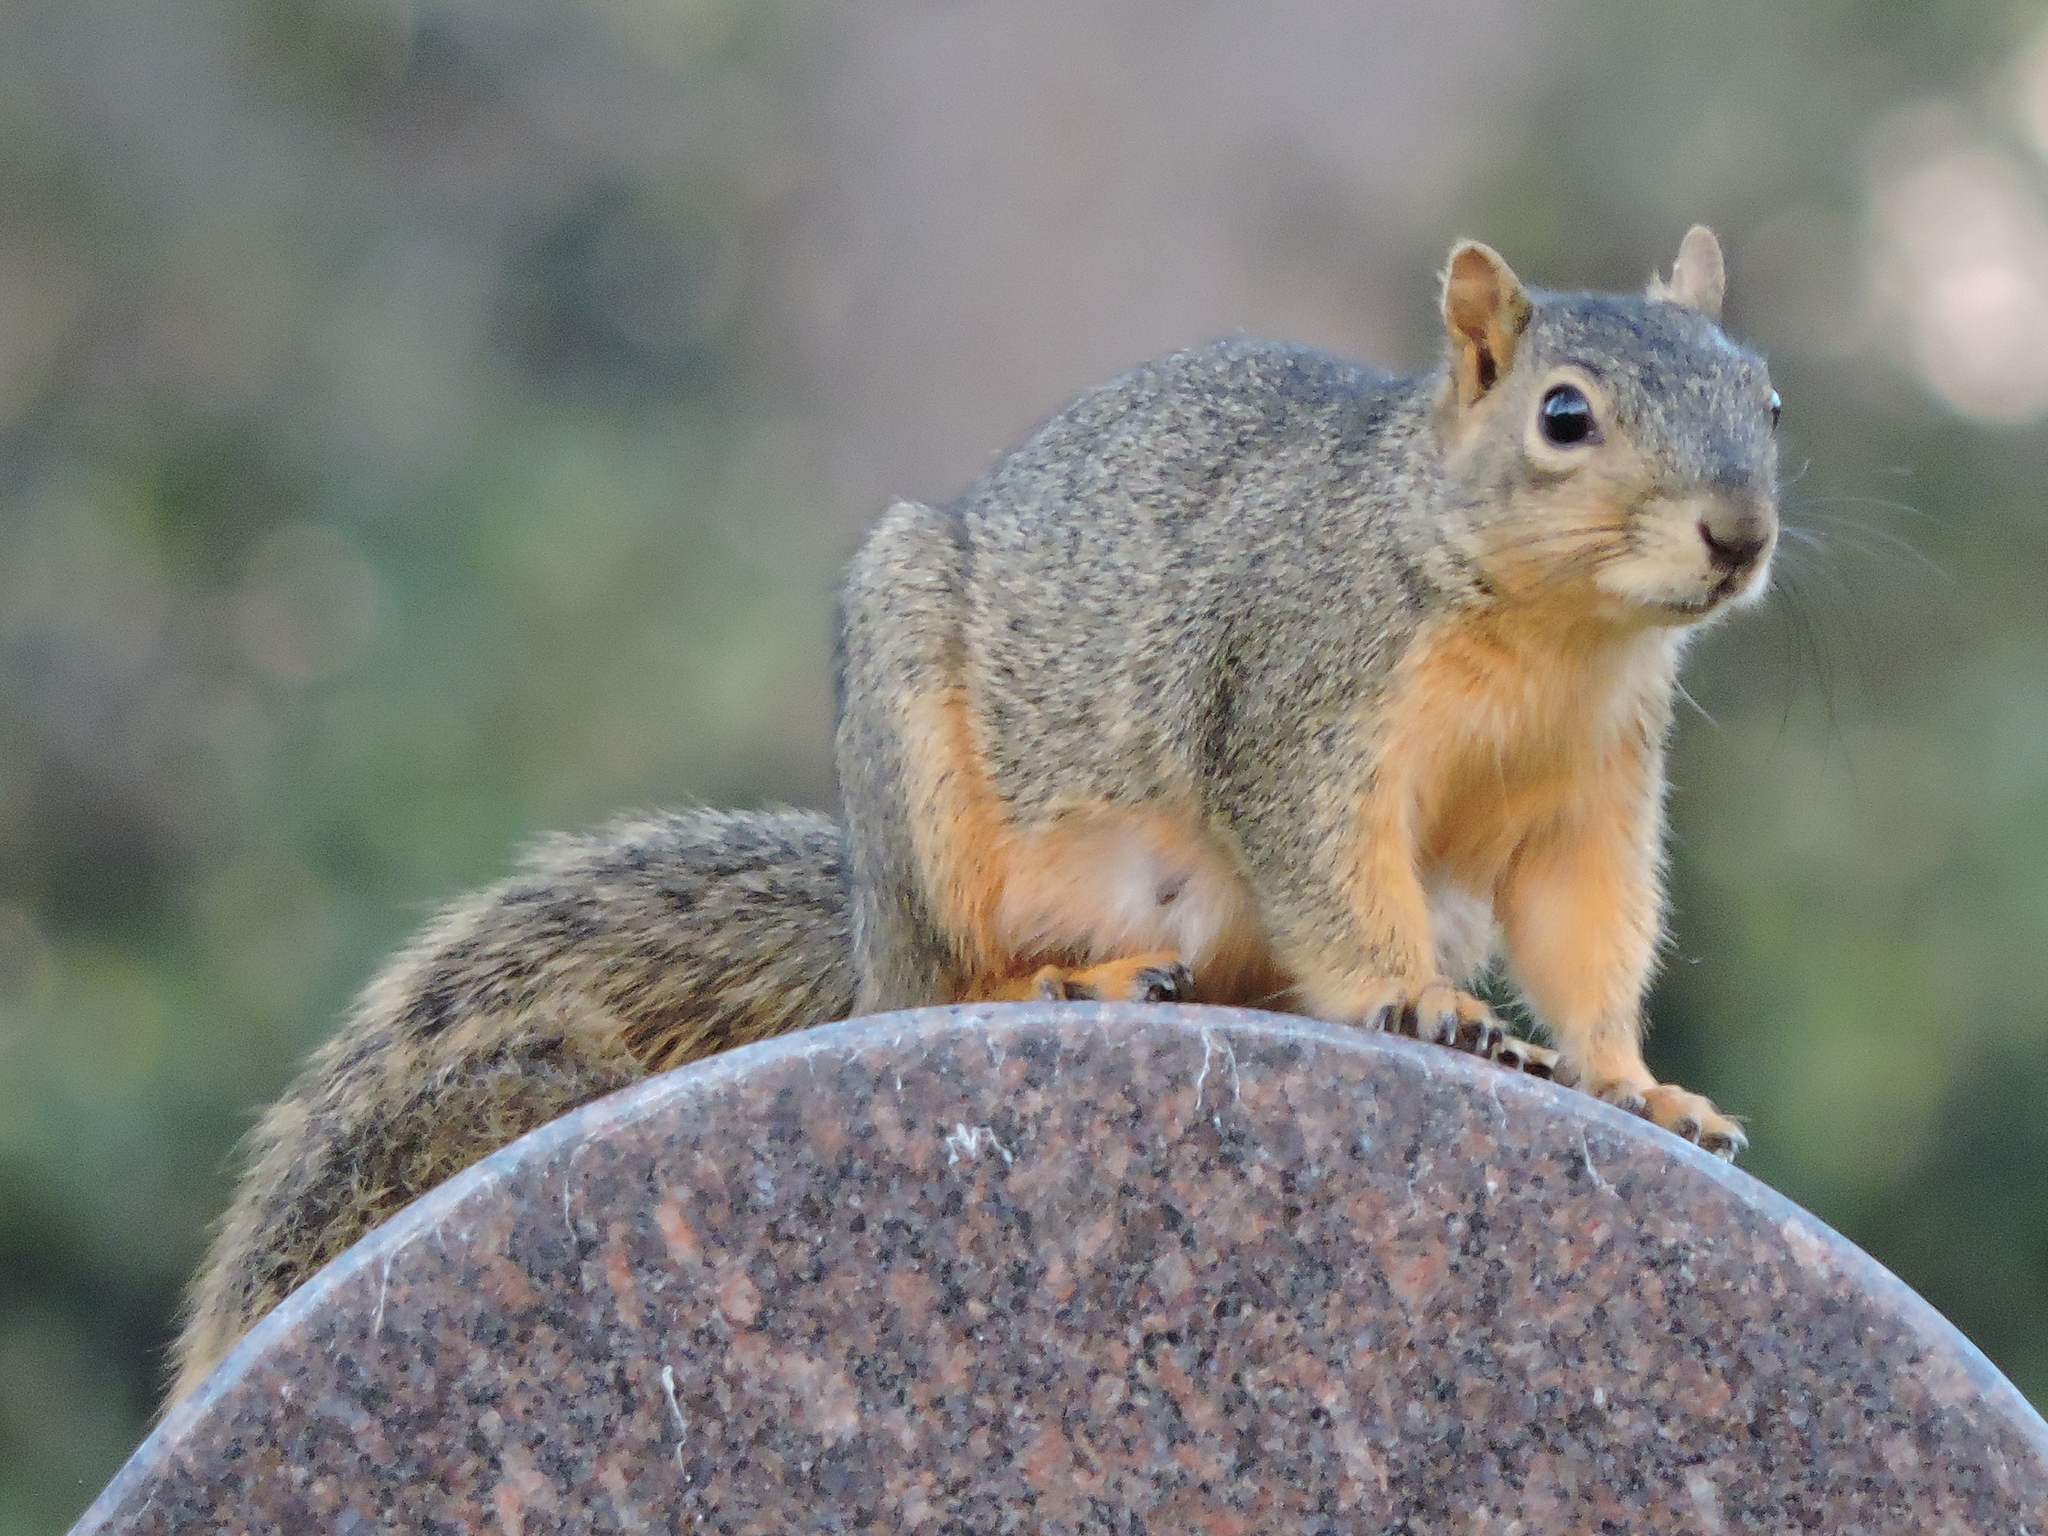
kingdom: Animalia
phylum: Chordata
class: Mammalia
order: Rodentia
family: Sciuridae
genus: Sciurus
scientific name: Sciurus niger
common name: Fox squirrel
